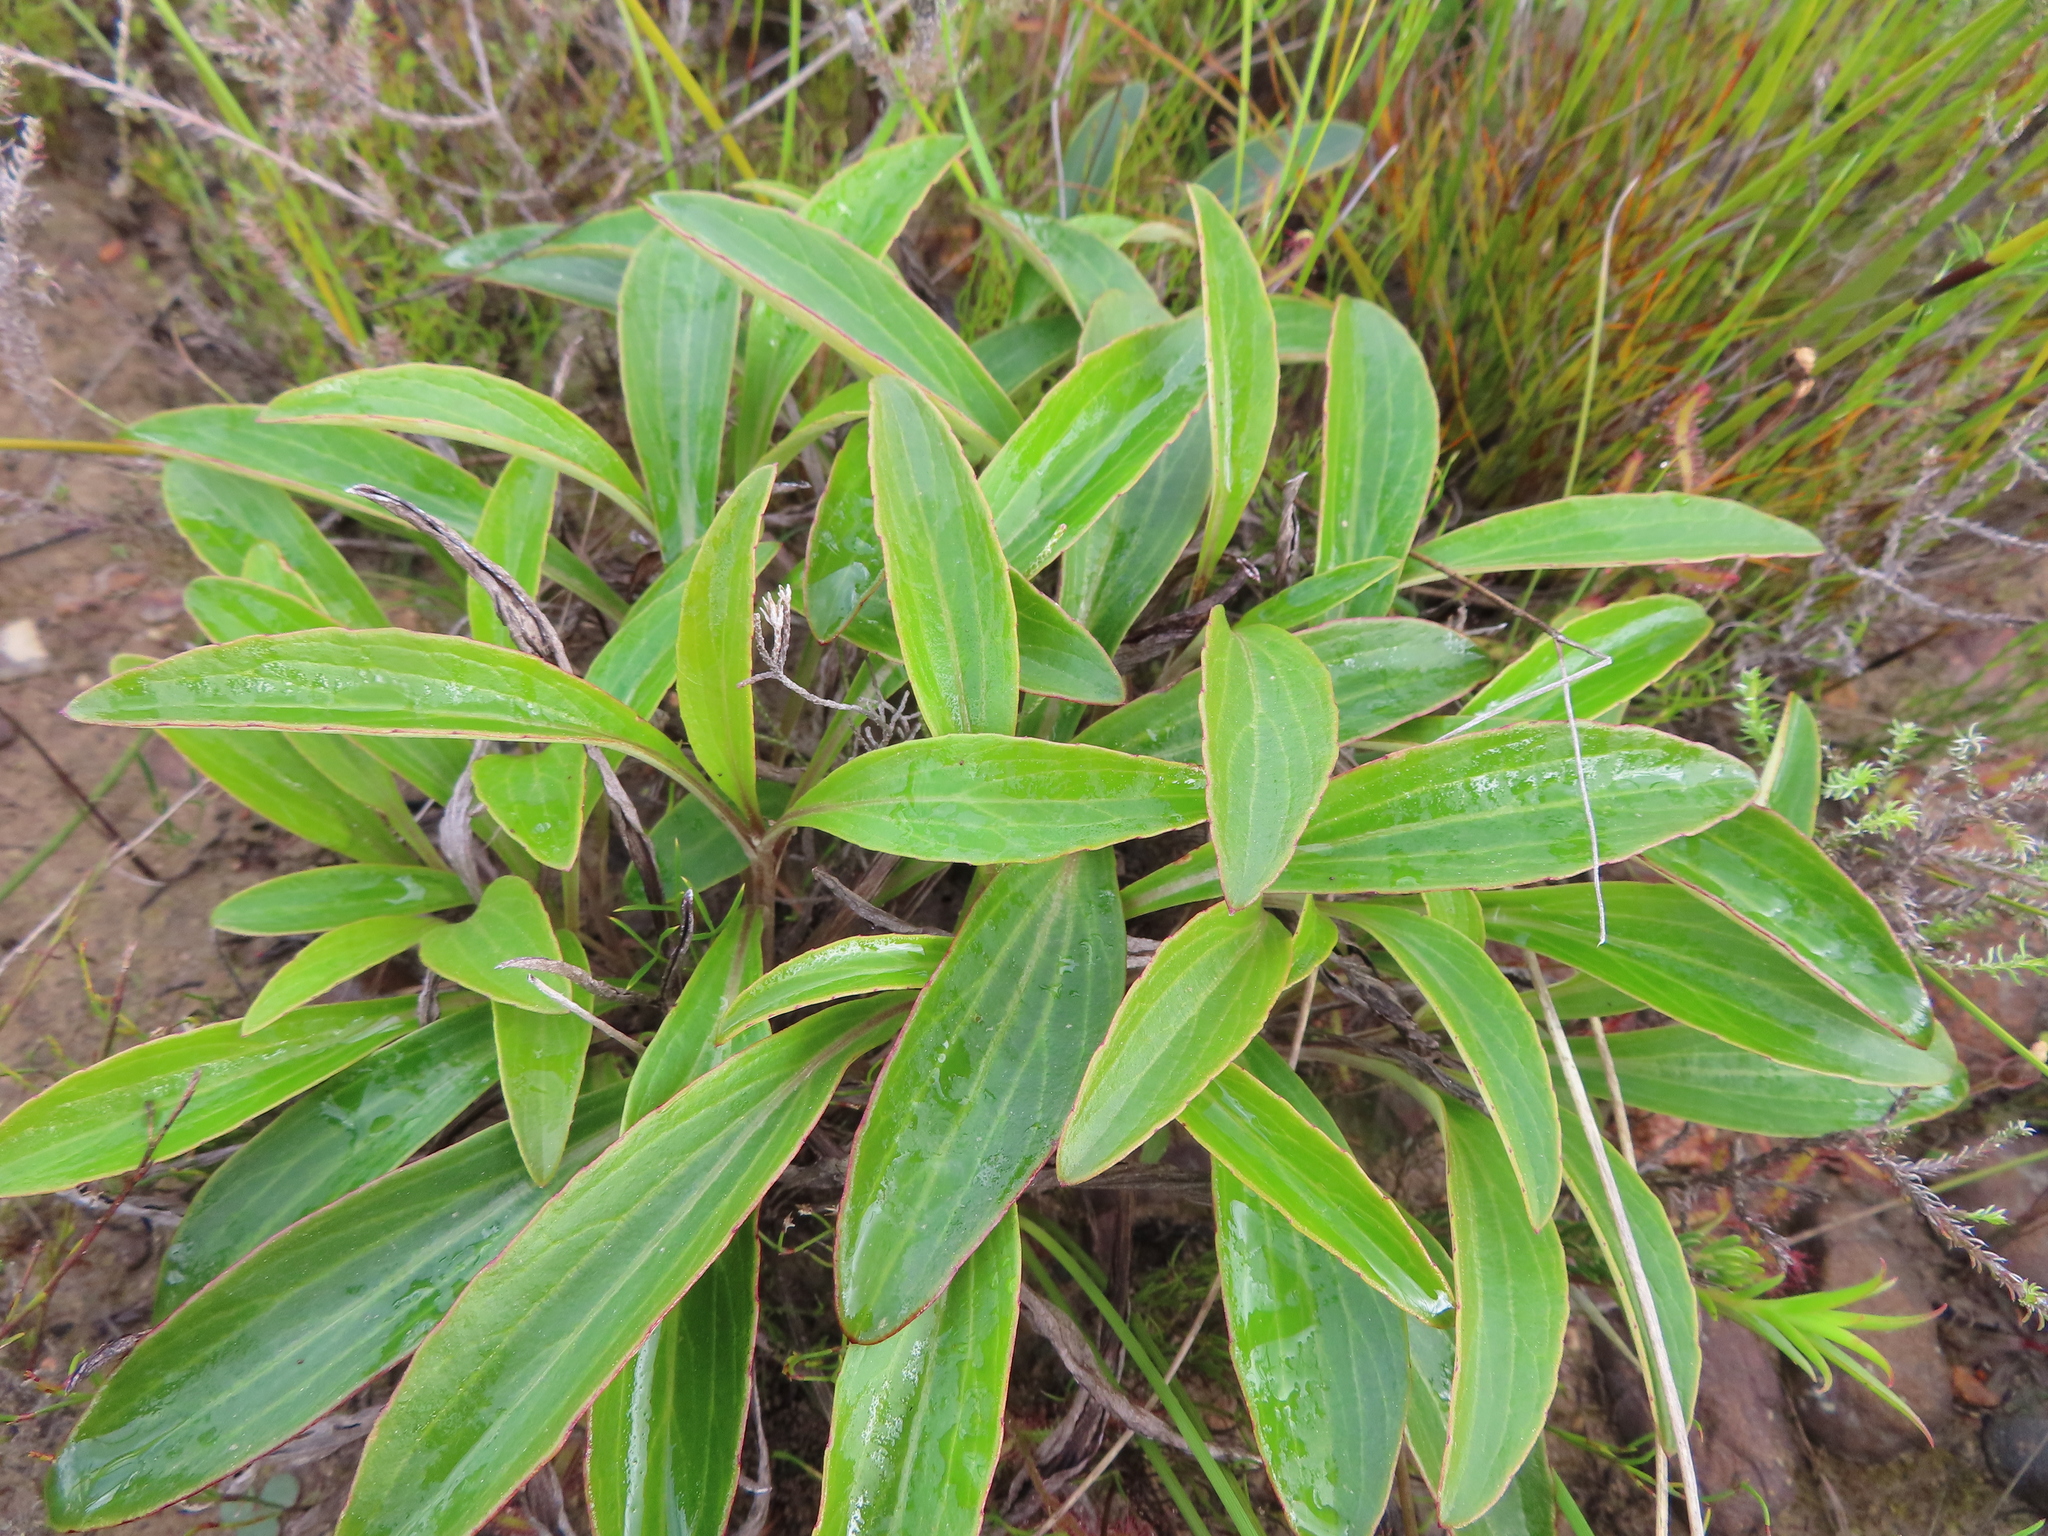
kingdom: Plantae
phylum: Tracheophyta
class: Magnoliopsida
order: Asterales
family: Asteraceae
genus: Berkheya
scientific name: Berkheya herbacea
